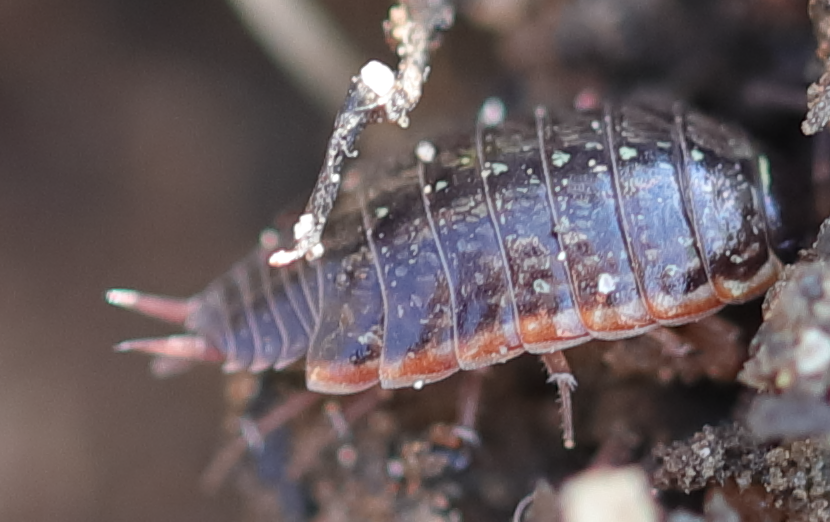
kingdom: Animalia
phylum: Arthropoda
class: Malacostraca
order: Isopoda
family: Philosciidae
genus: Philoscia
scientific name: Philoscia muscorum
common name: Common striped woodlouse
